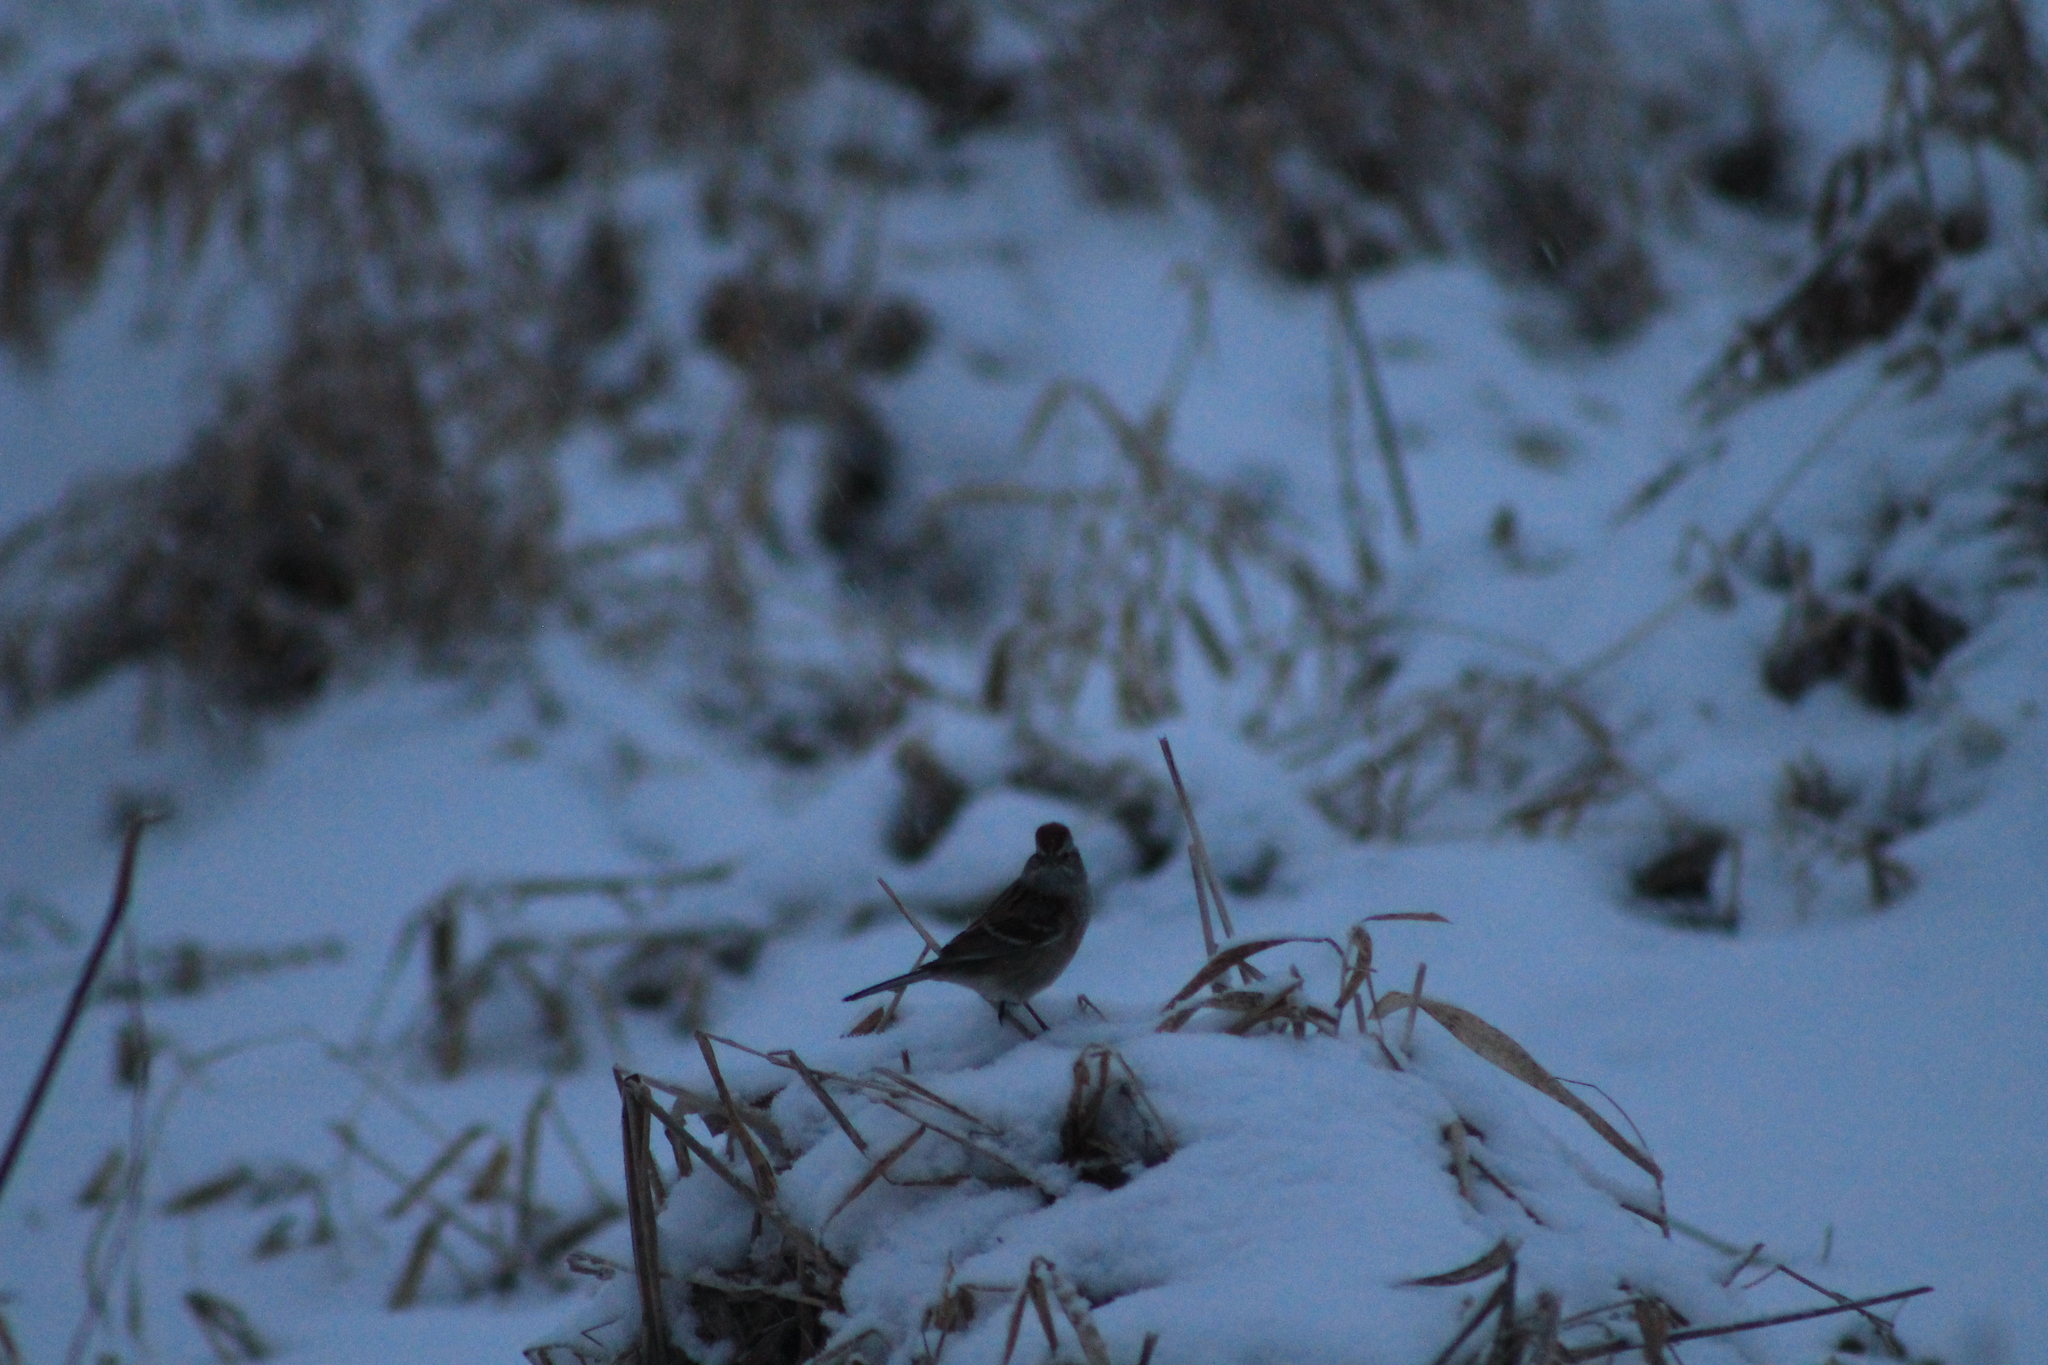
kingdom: Animalia
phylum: Chordata
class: Aves
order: Passeriformes
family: Passerellidae
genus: Spizelloides
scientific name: Spizelloides arborea
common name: American tree sparrow
